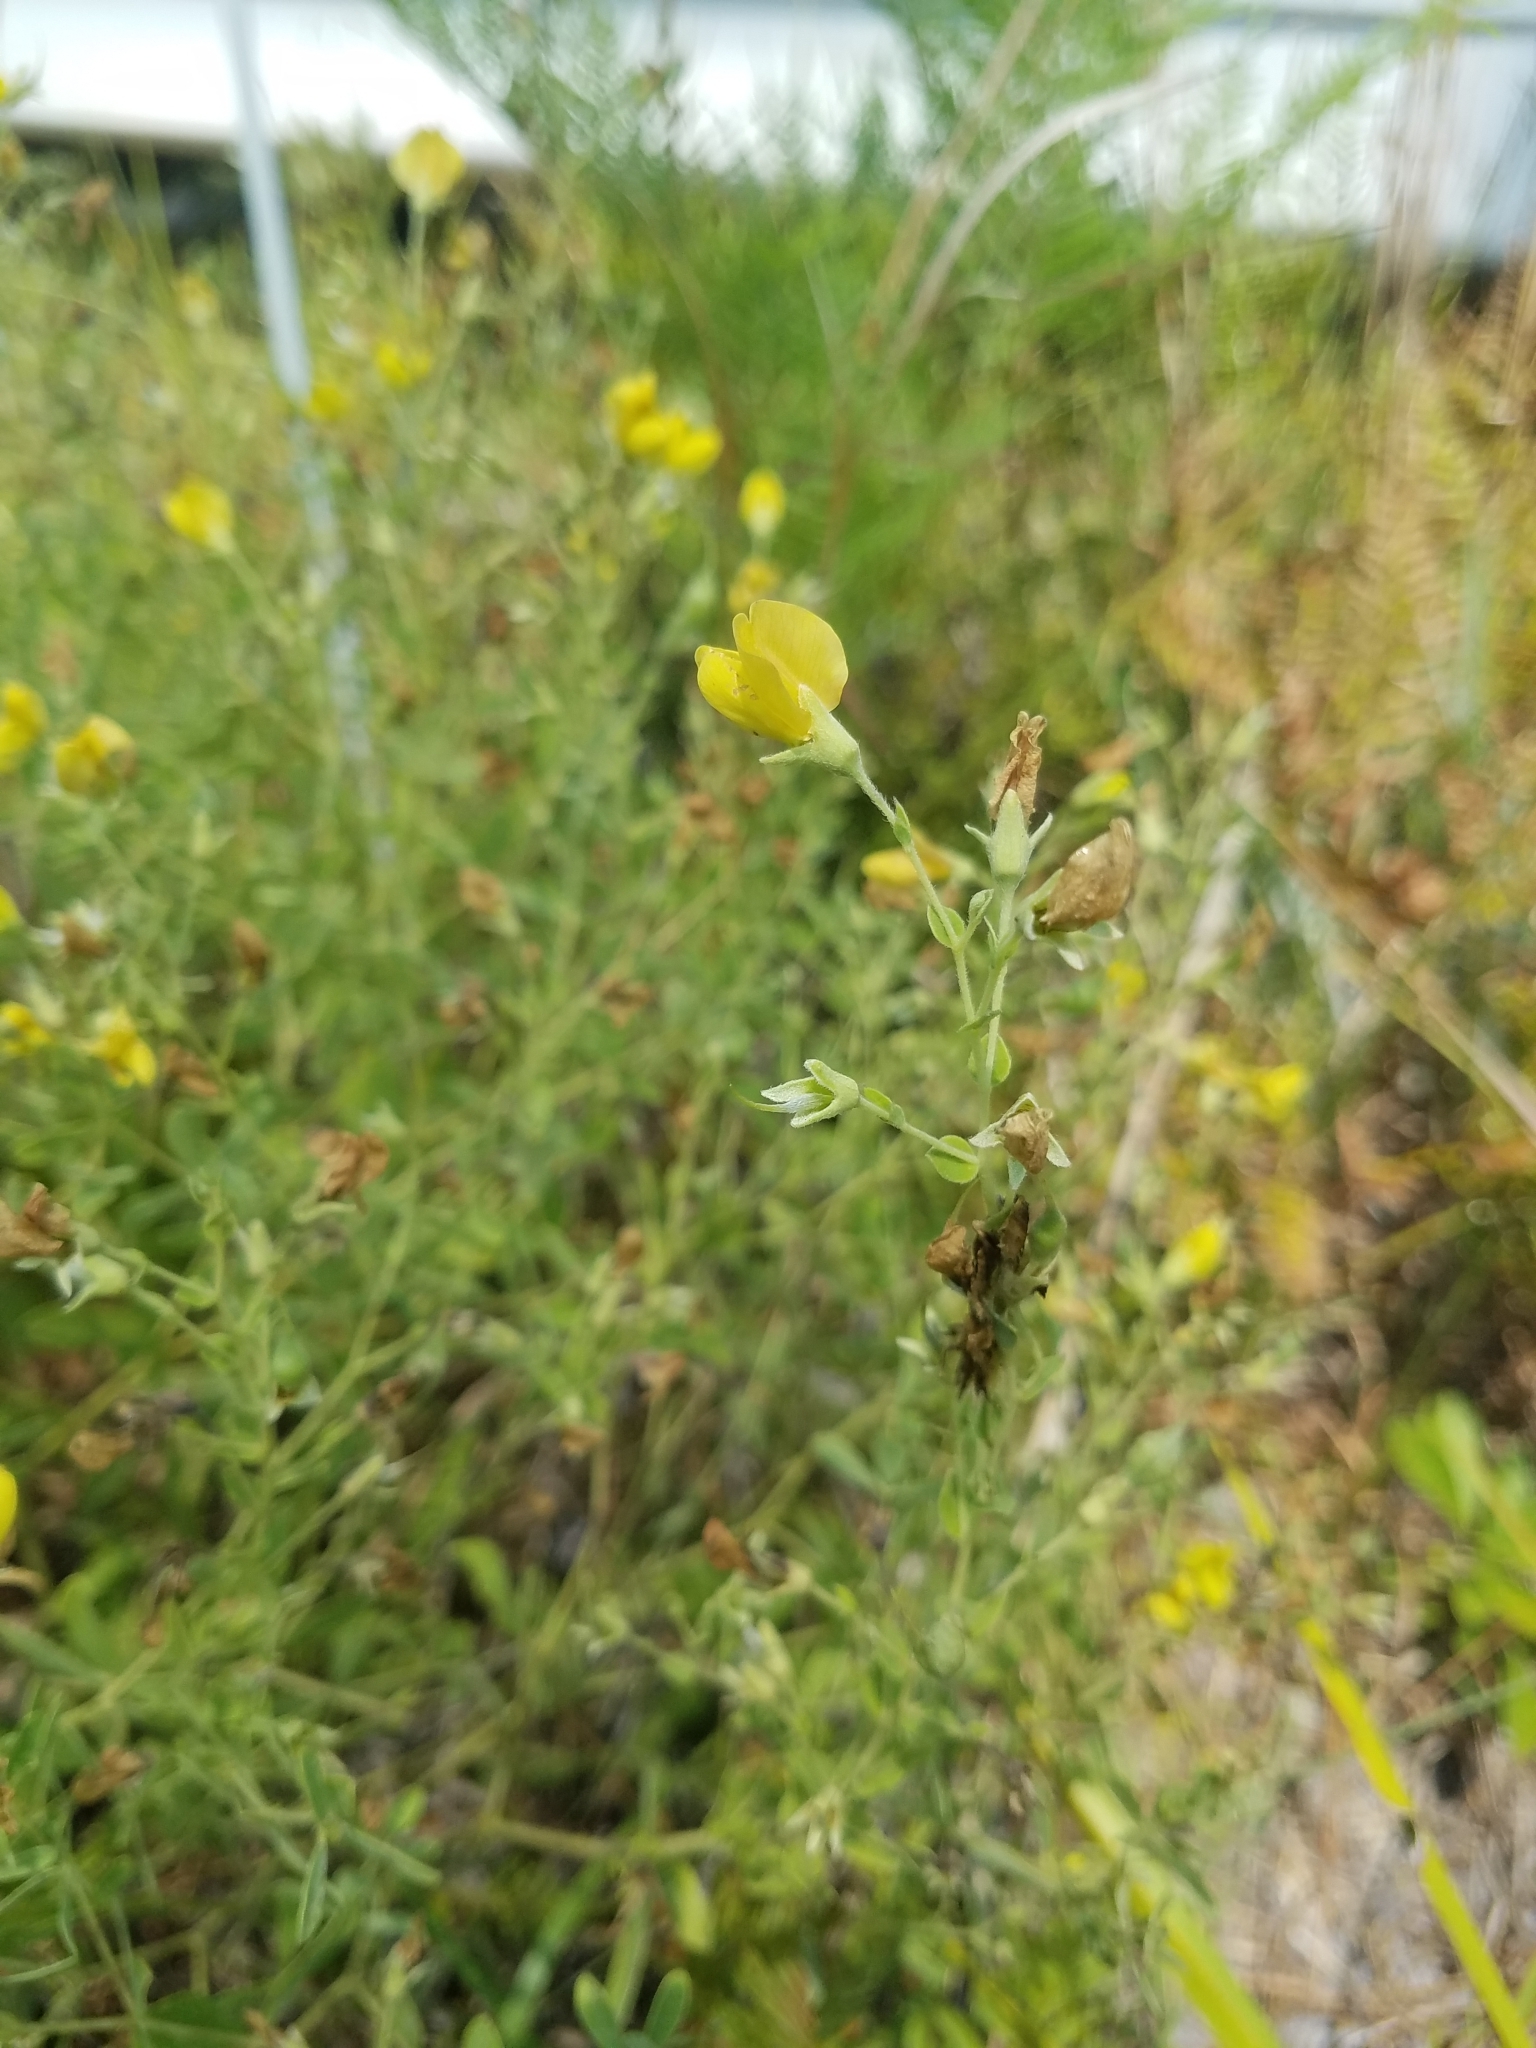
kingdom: Plantae
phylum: Tracheophyta
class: Magnoliopsida
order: Fabales
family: Fabaceae
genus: Baptisia
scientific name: Baptisia lecontei
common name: Pineland wild indigo
